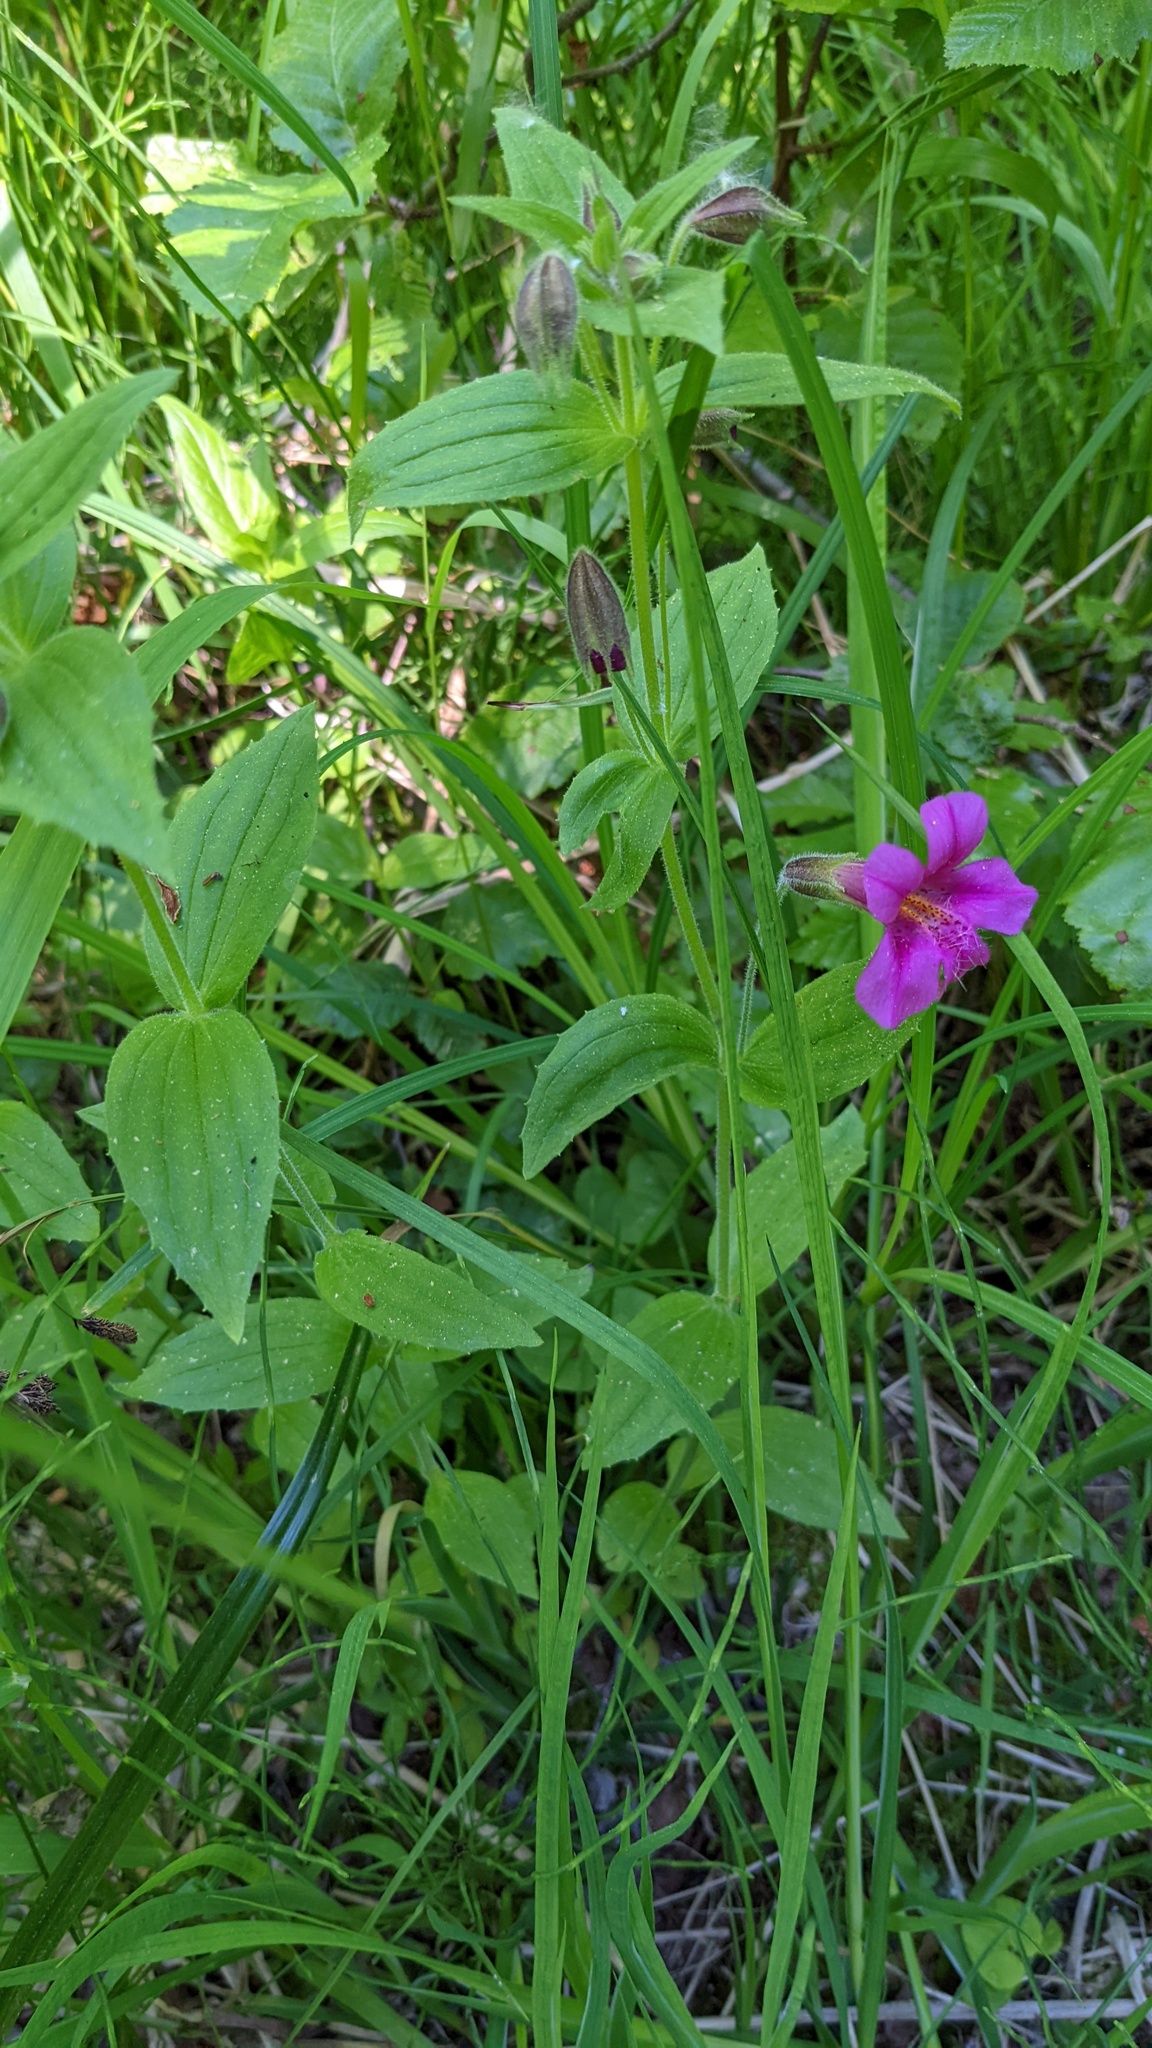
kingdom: Plantae
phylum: Tracheophyta
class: Magnoliopsida
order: Lamiales
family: Phrymaceae
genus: Erythranthe
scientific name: Erythranthe lewisii
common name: Lewis's monkey-flower
